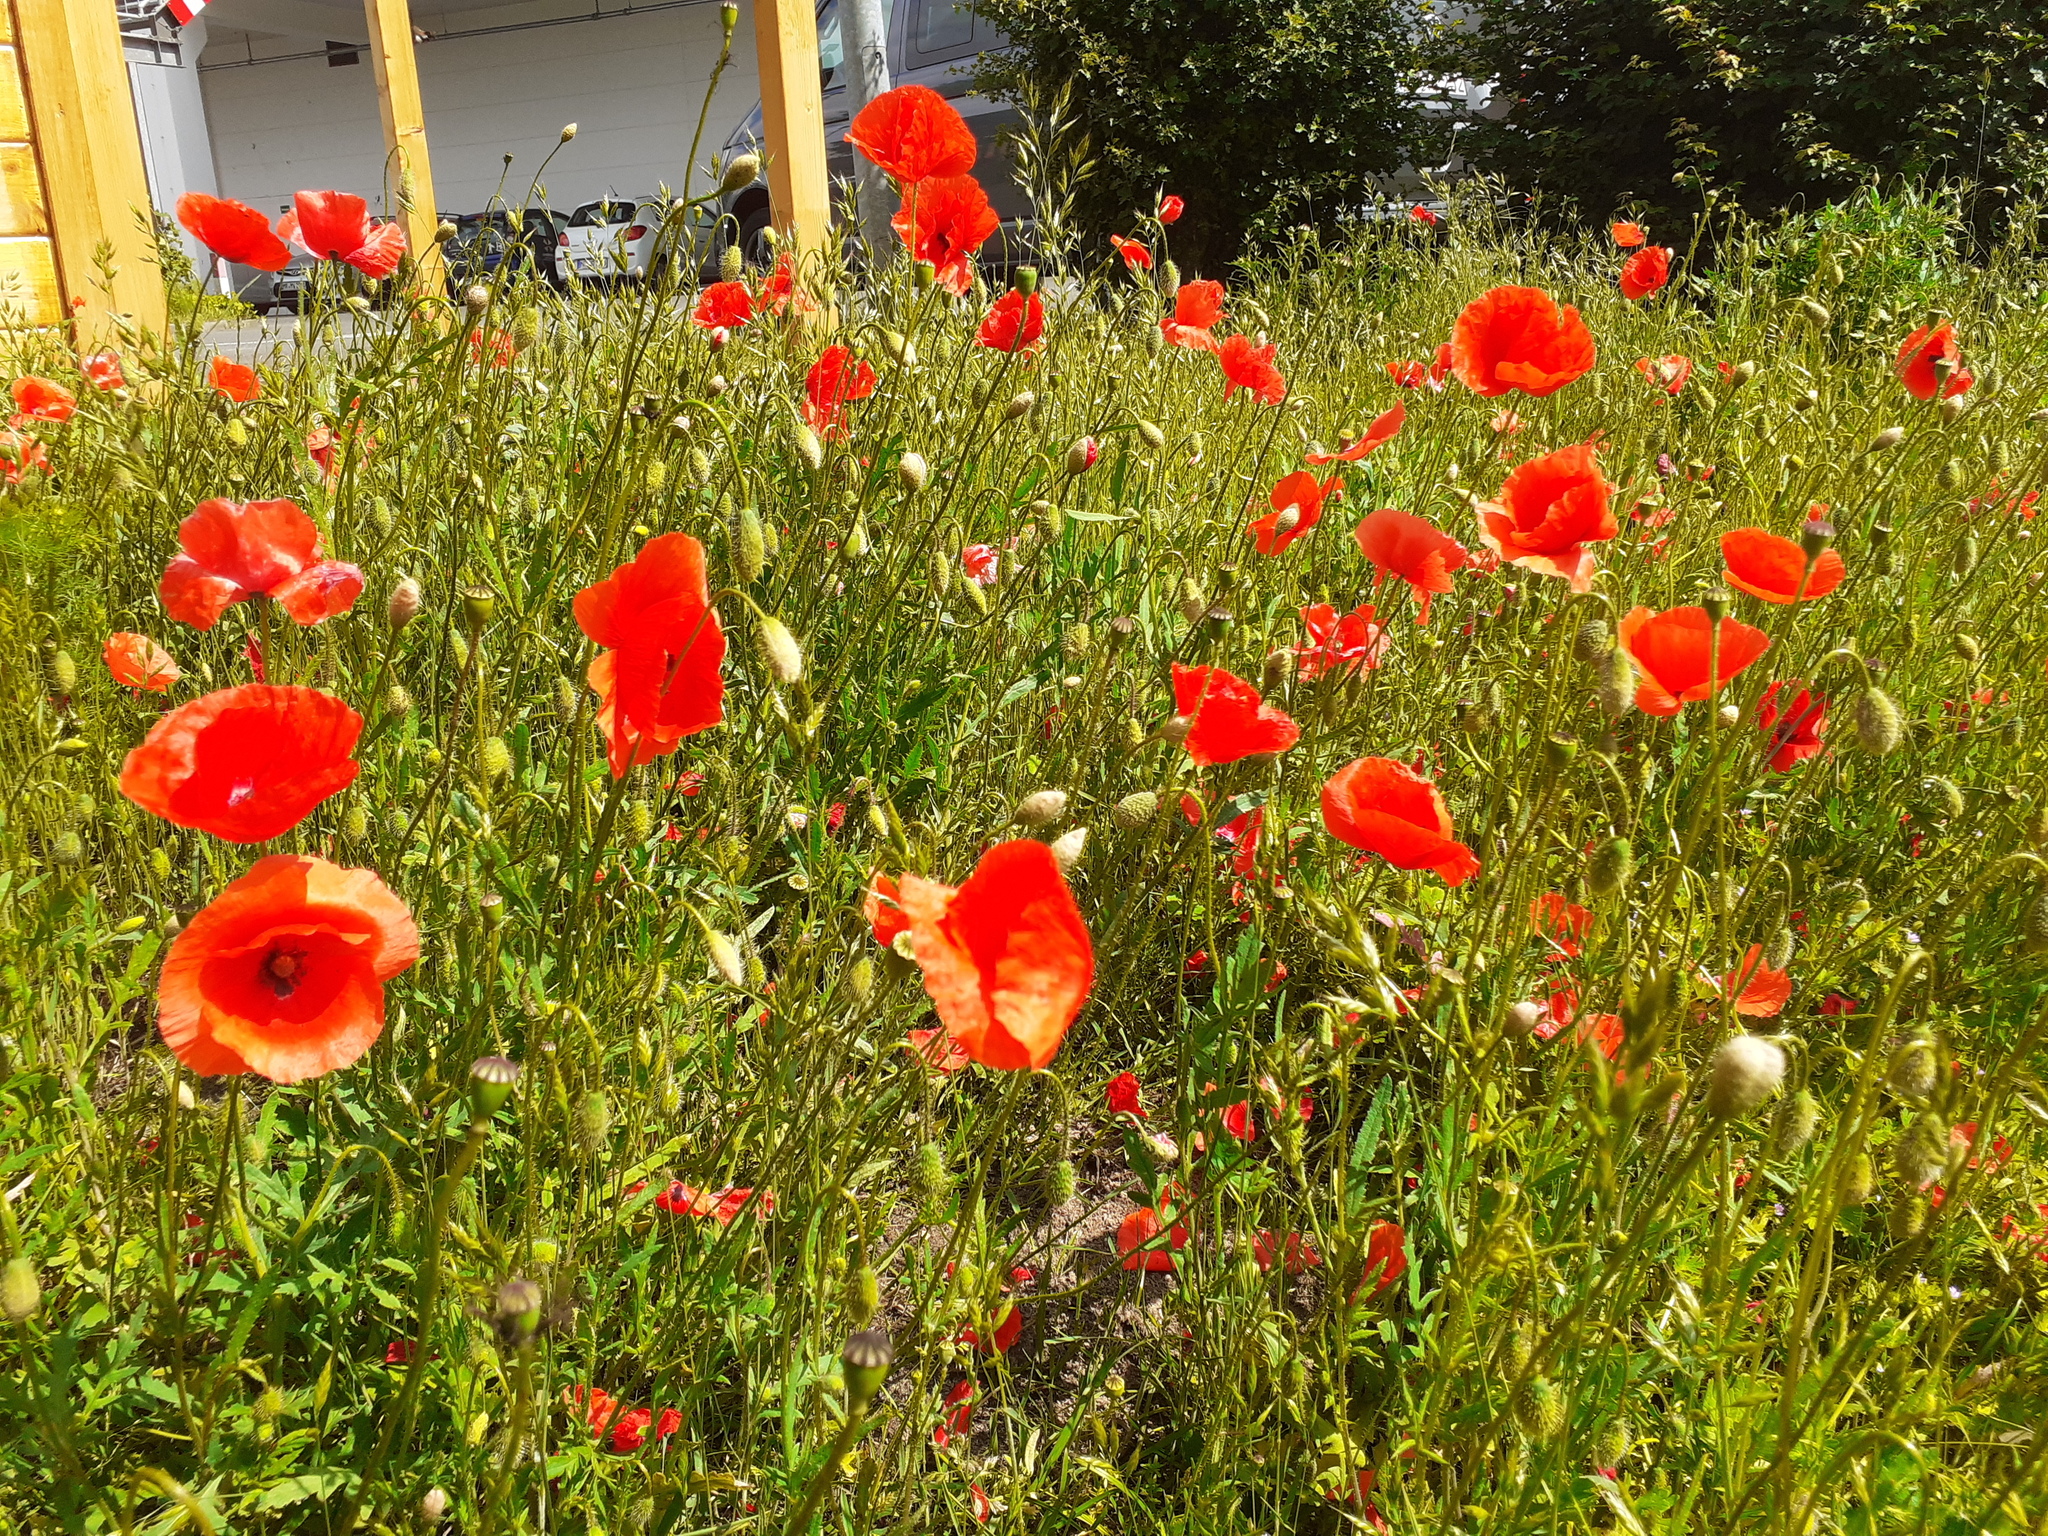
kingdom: Plantae
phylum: Tracheophyta
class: Magnoliopsida
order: Ranunculales
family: Papaveraceae
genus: Papaver
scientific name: Papaver rhoeas
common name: Corn poppy
